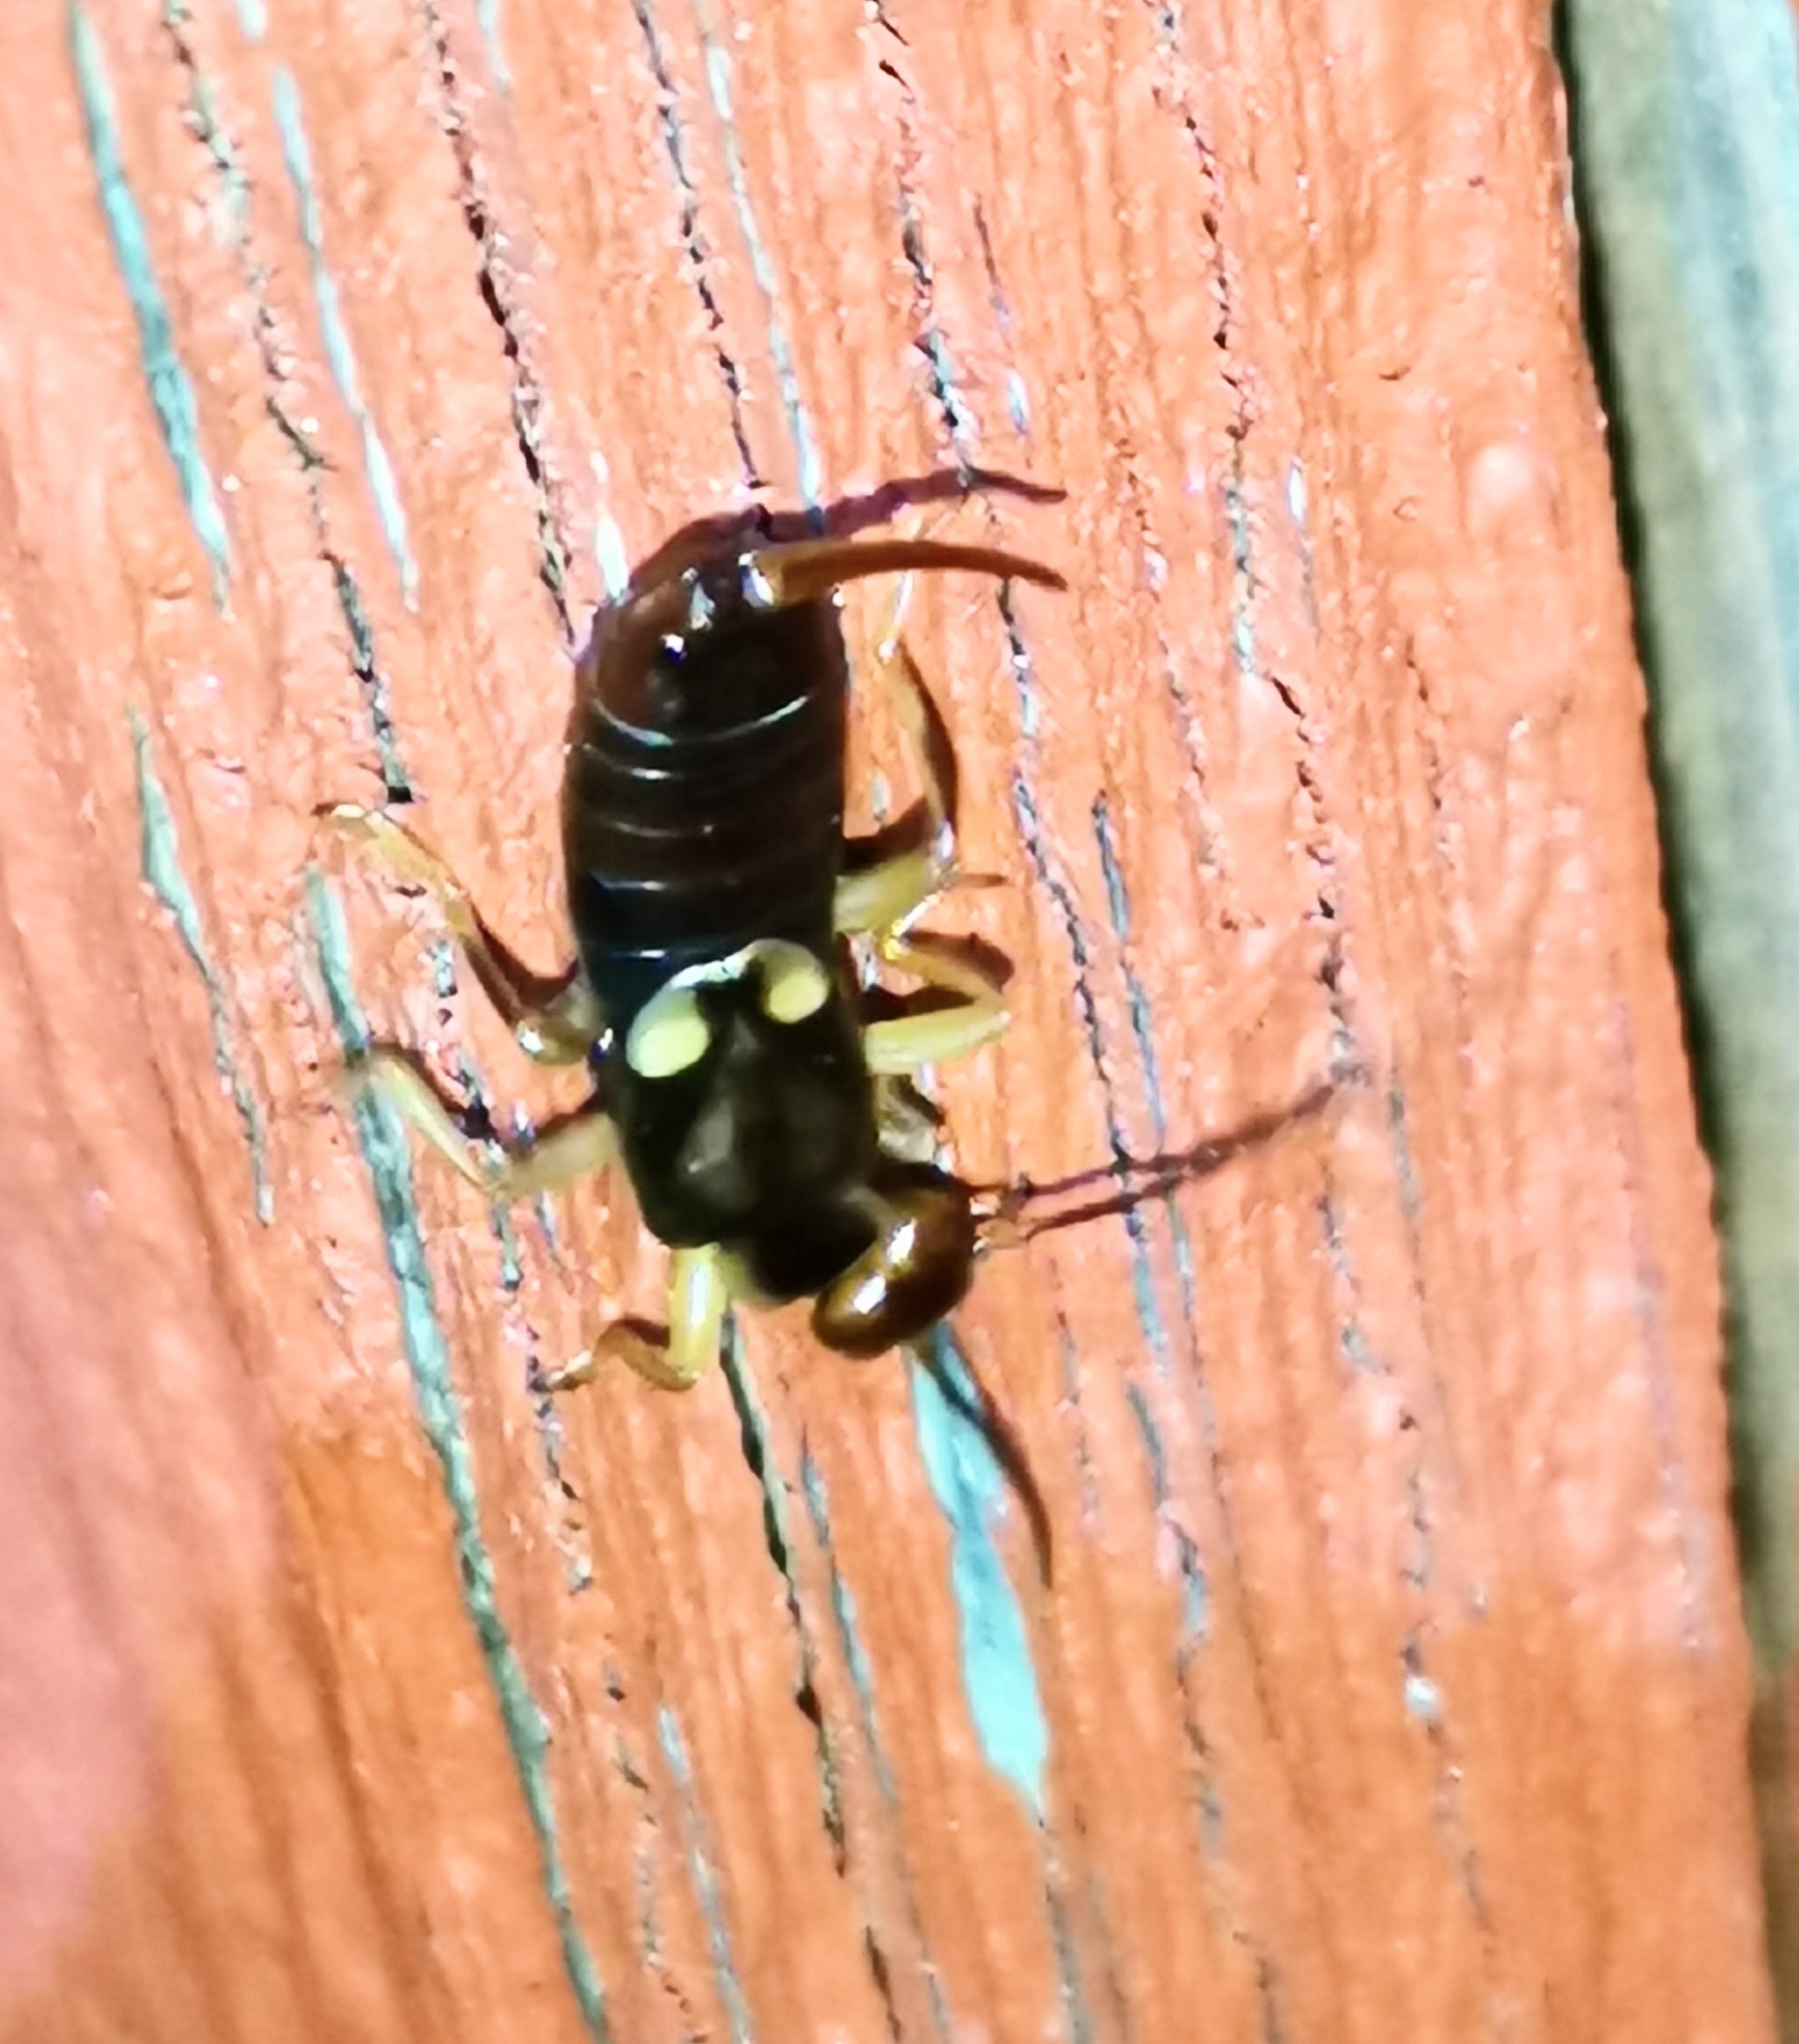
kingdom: Animalia
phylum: Arthropoda
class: Insecta
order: Dermaptera
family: Forficulidae
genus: Forficula
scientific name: Forficula
